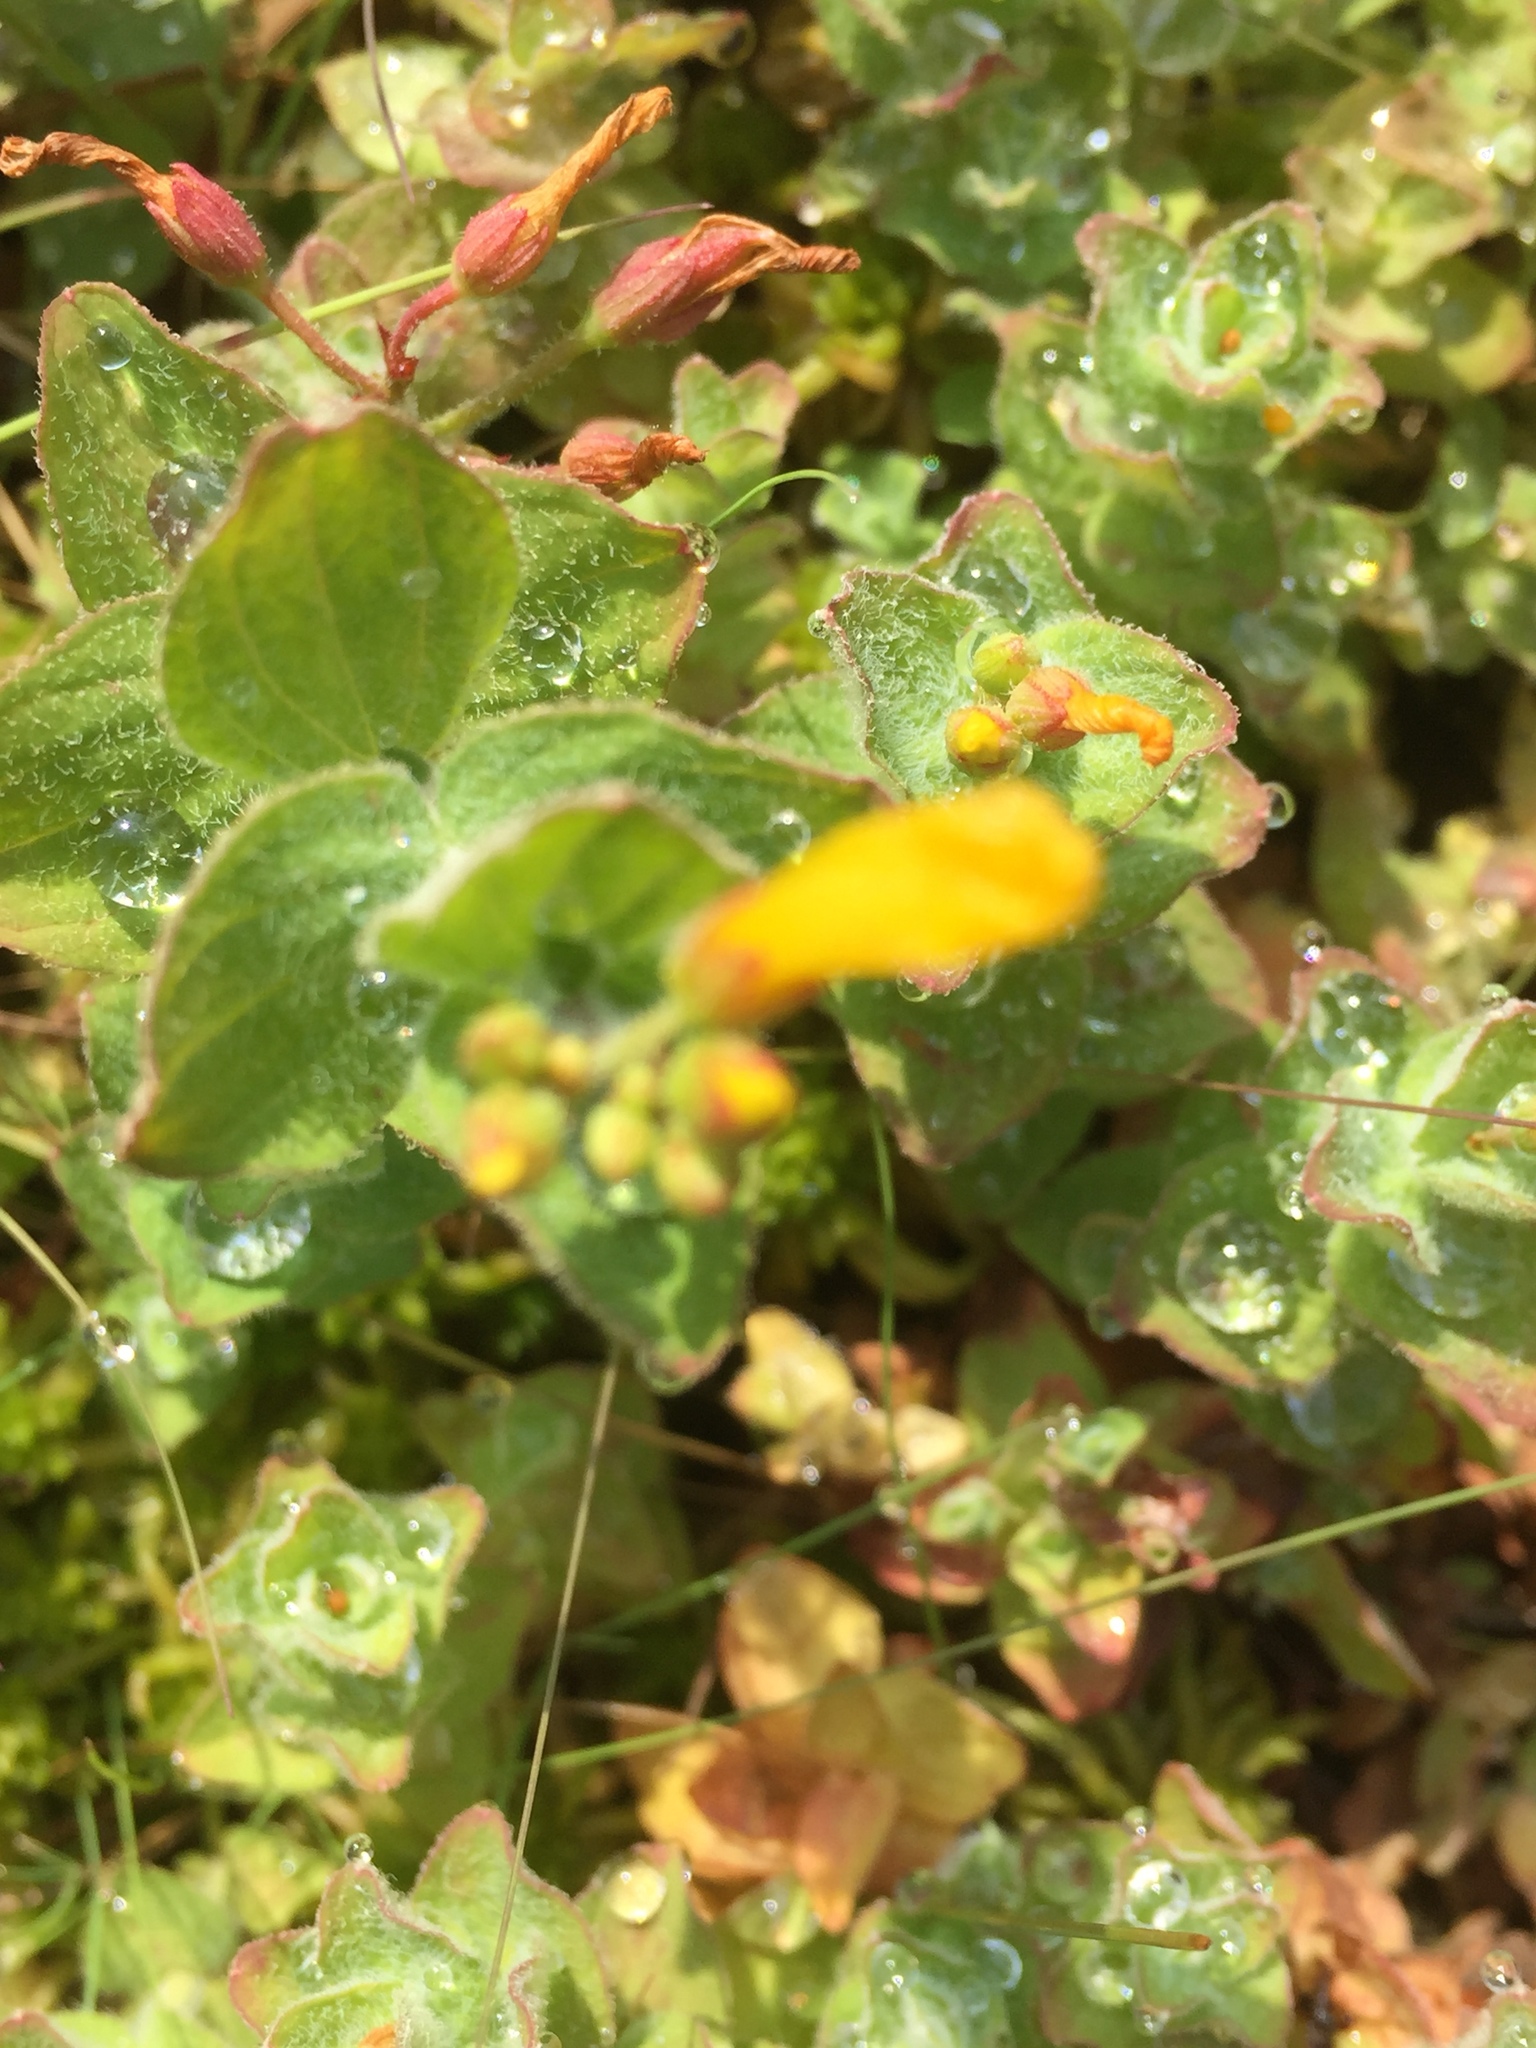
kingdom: Plantae
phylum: Tracheophyta
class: Magnoliopsida
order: Malpighiales
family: Hypericaceae
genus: Hypericum
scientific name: Hypericum elodes
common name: Marsh st. john's-wort
